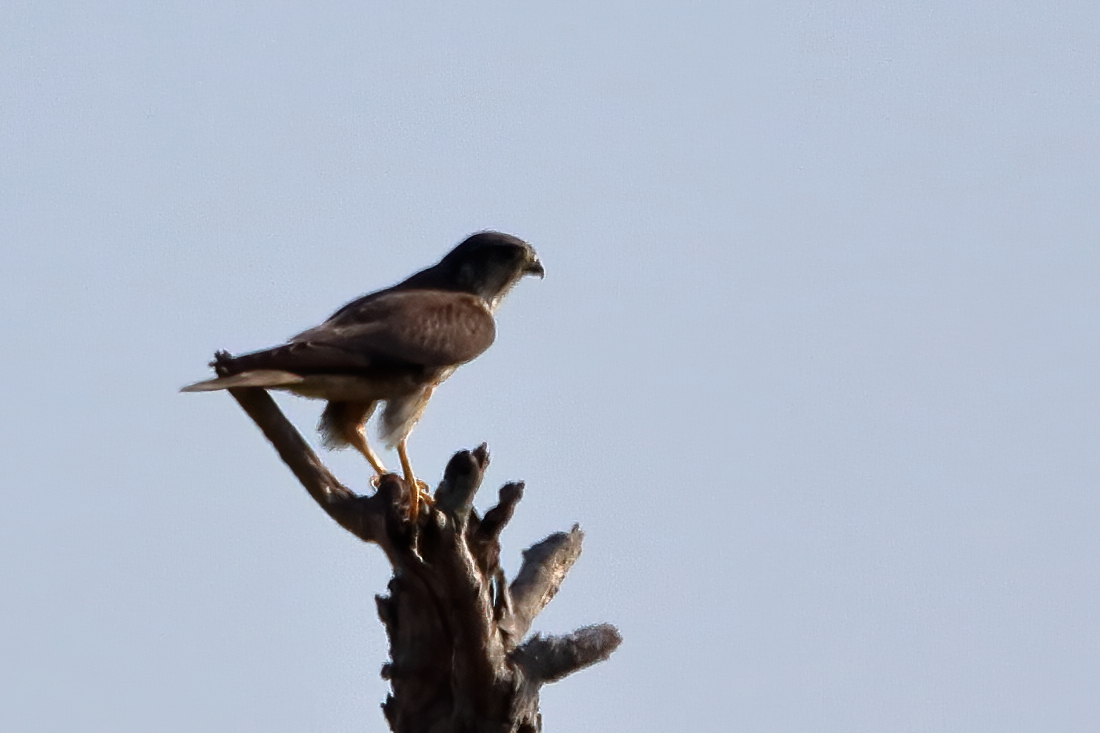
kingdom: Animalia
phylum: Chordata
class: Aves
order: Falconiformes
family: Falconidae
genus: Falco
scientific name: Falco columbarius
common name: Merlin
